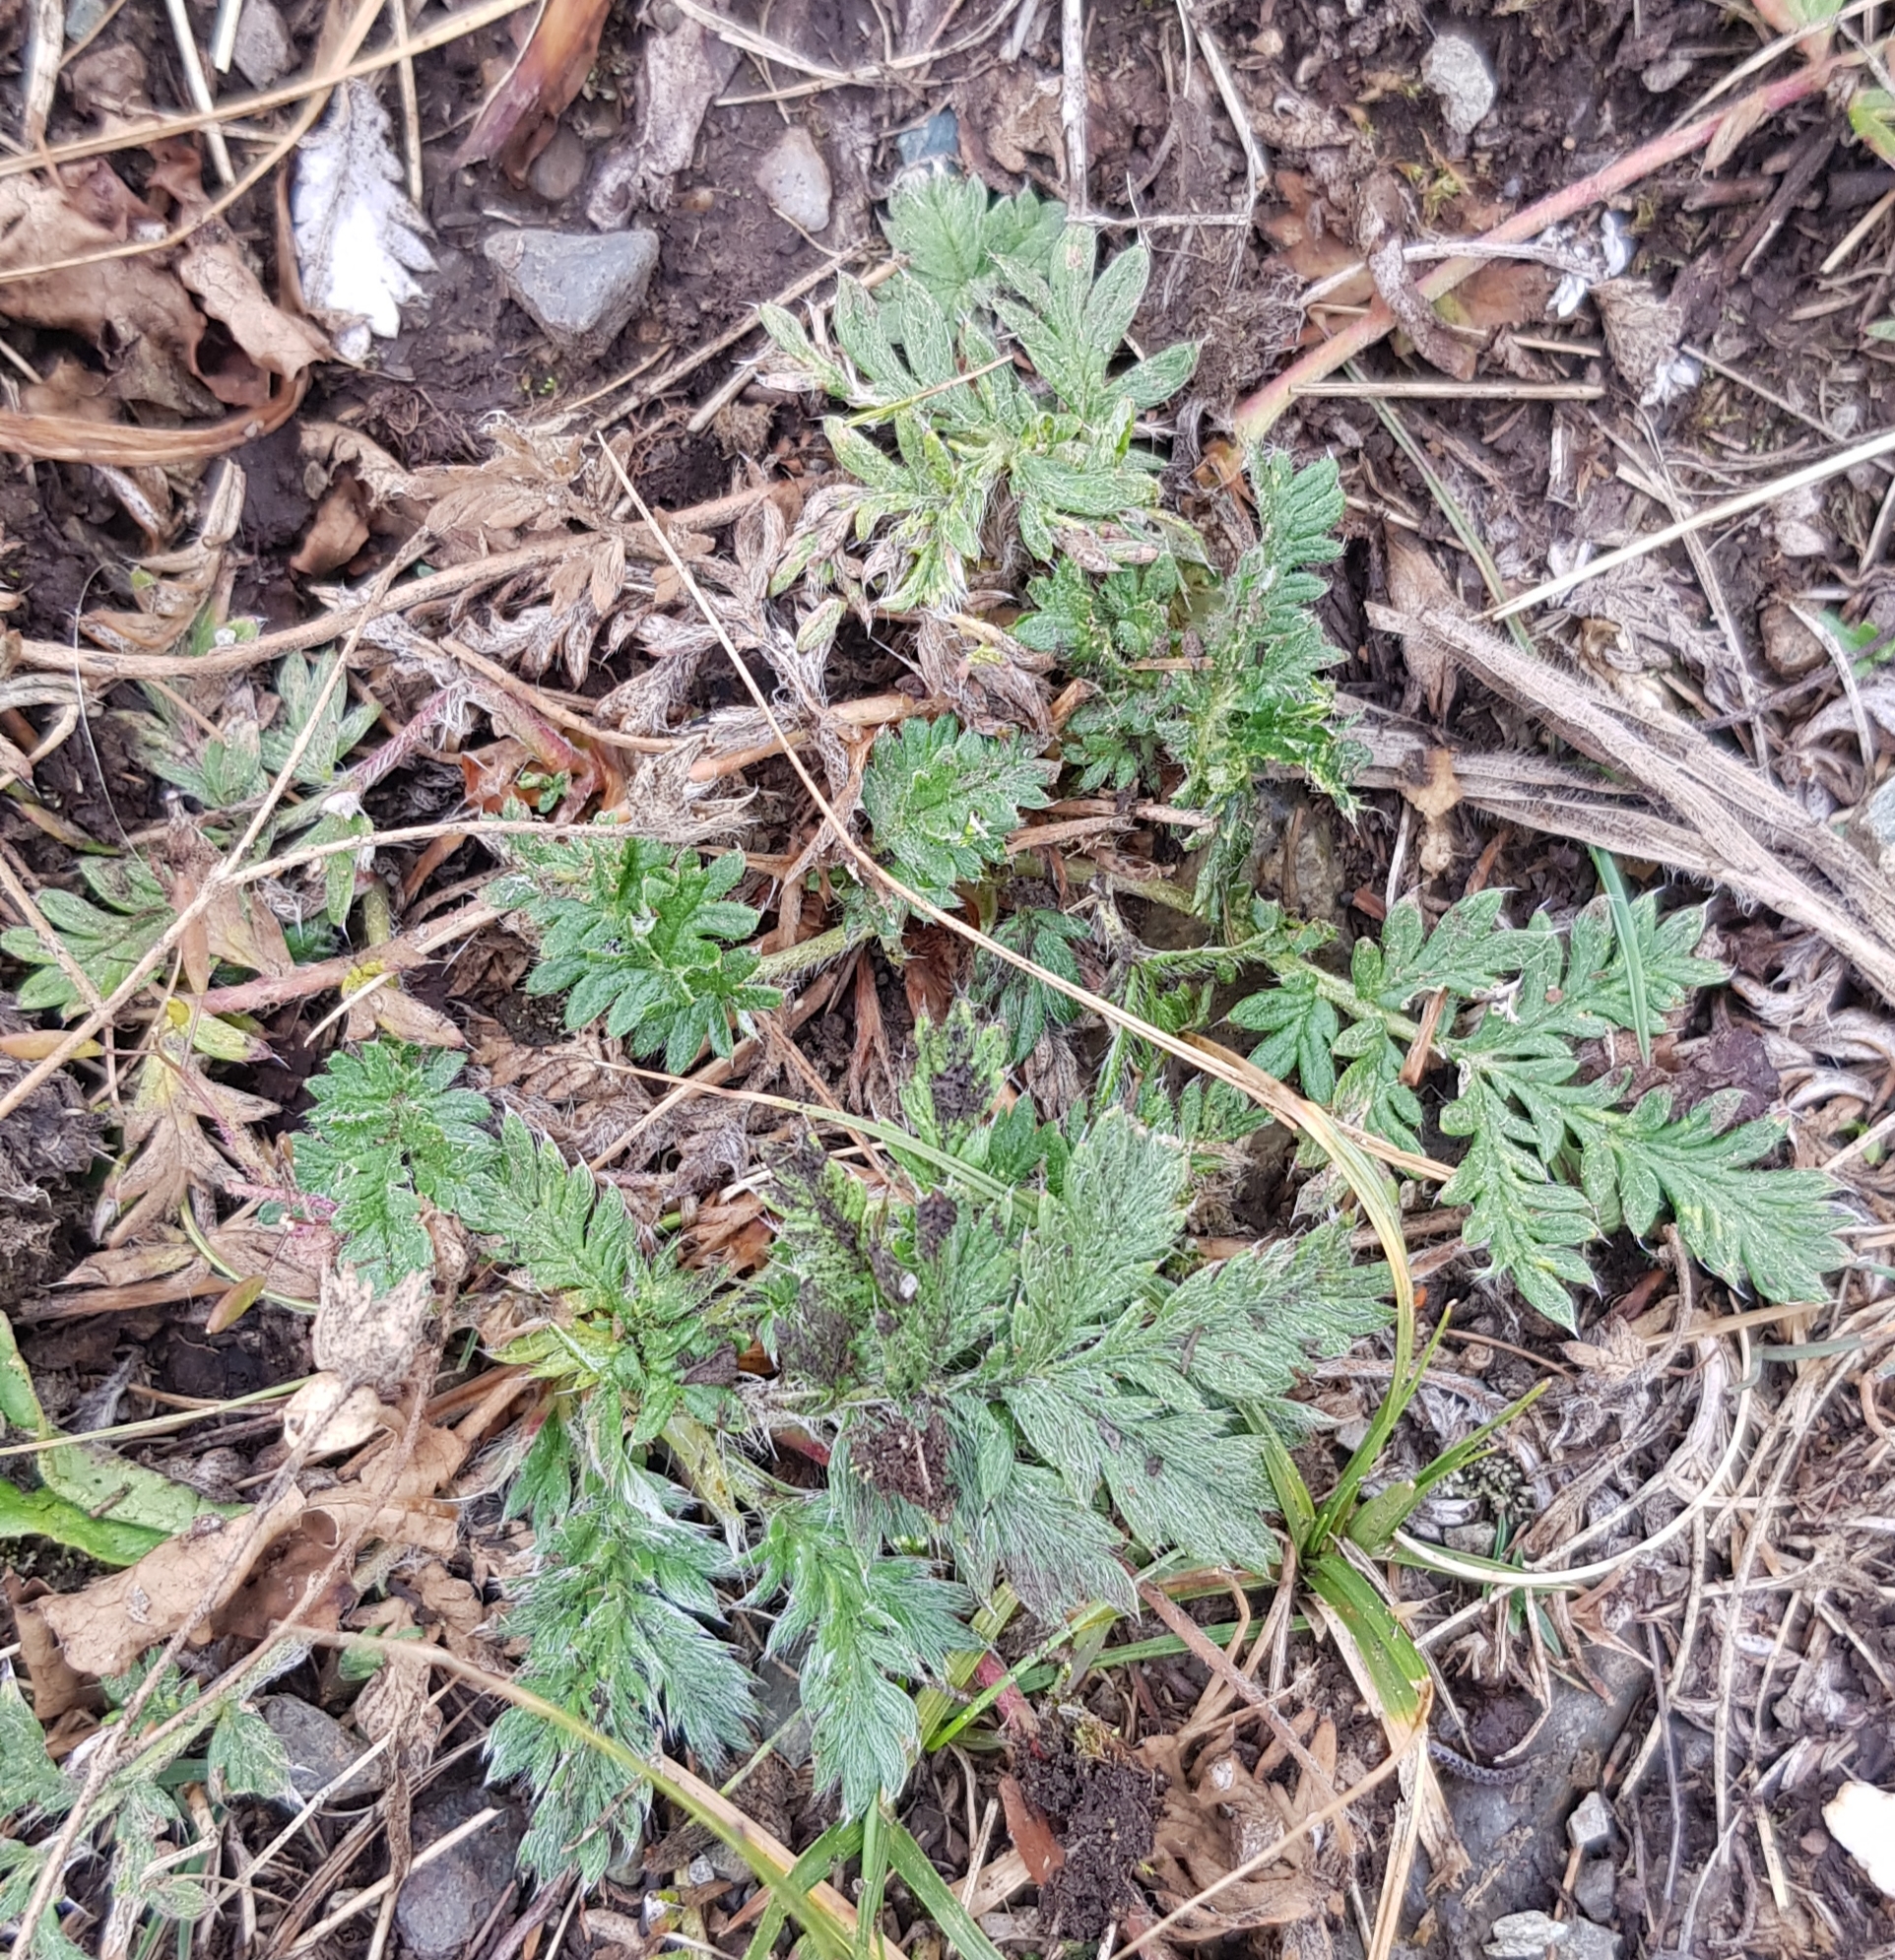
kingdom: Plantae
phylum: Tracheophyta
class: Magnoliopsida
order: Rosales
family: Rosaceae
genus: Potentilla
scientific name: Potentilla tergemina
